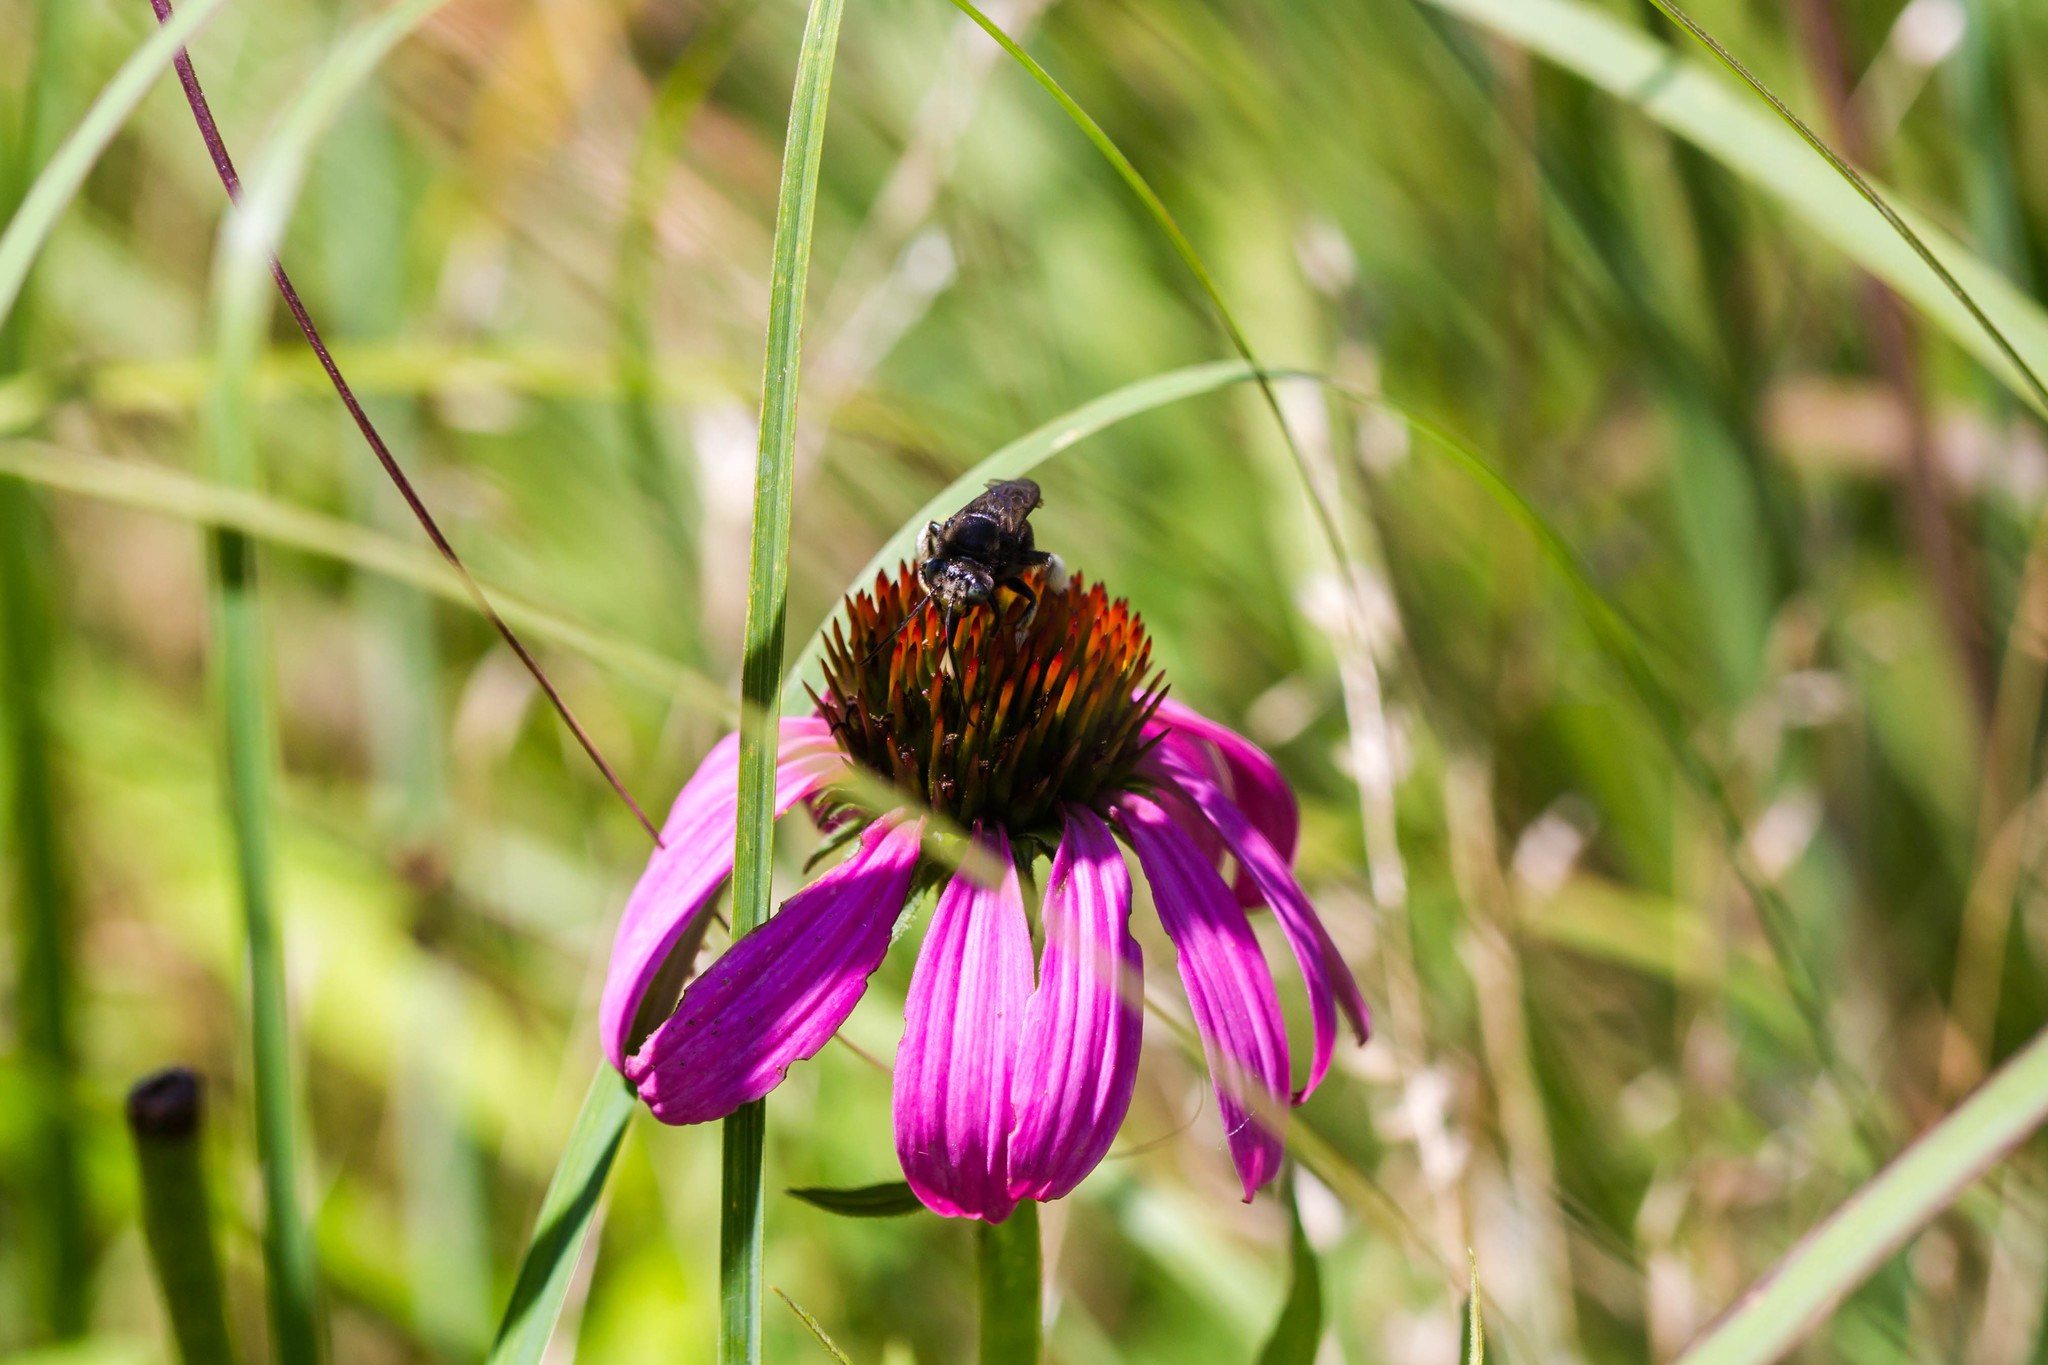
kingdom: Animalia
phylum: Arthropoda
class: Insecta
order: Hymenoptera
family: Apidae
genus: Melissodes
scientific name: Melissodes bimaculatus
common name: Two-spotted long-horned bee
